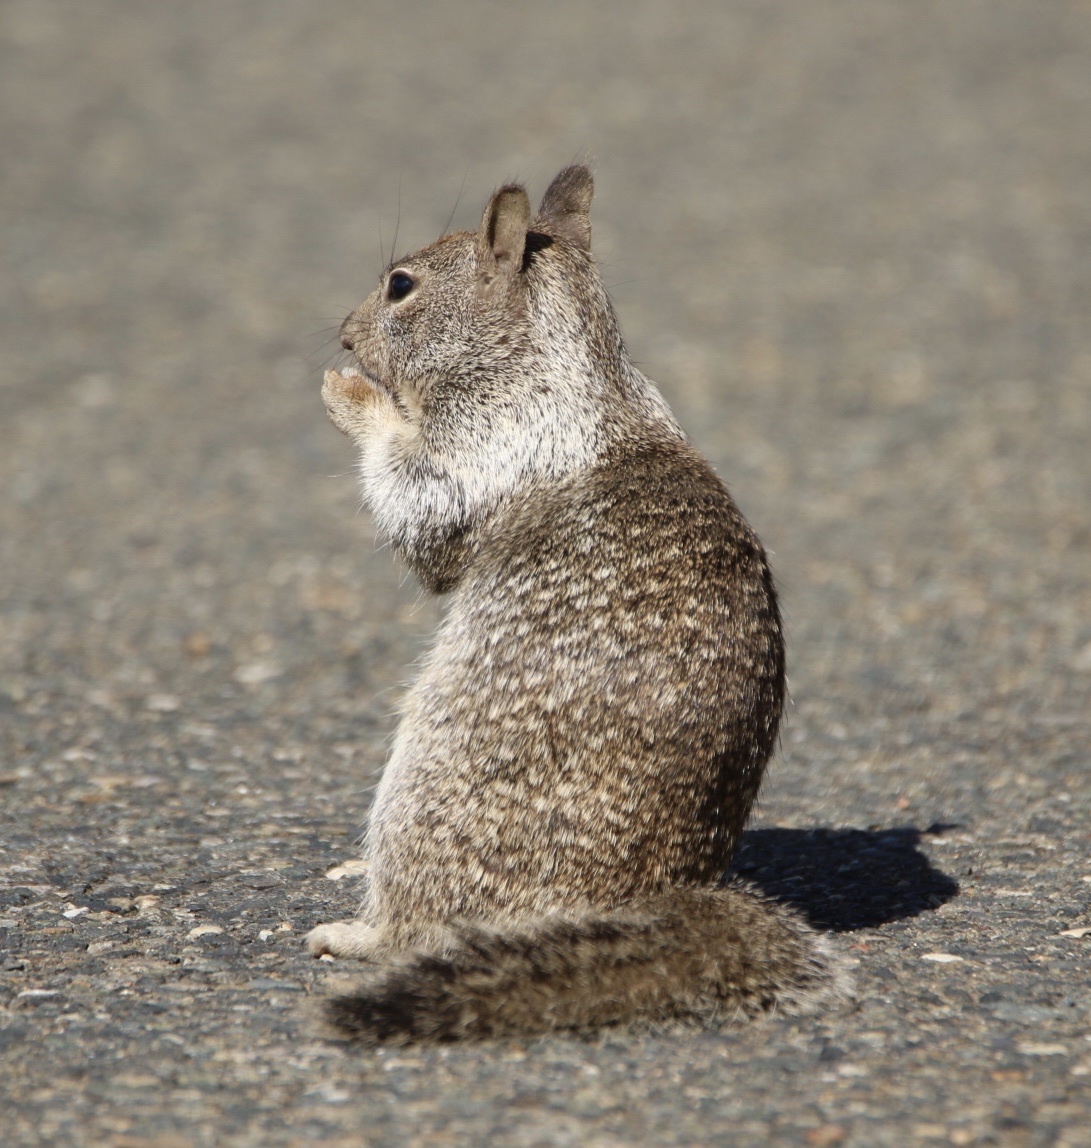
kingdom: Animalia
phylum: Chordata
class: Mammalia
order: Rodentia
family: Sciuridae
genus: Otospermophilus
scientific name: Otospermophilus beecheyi
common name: California ground squirrel
